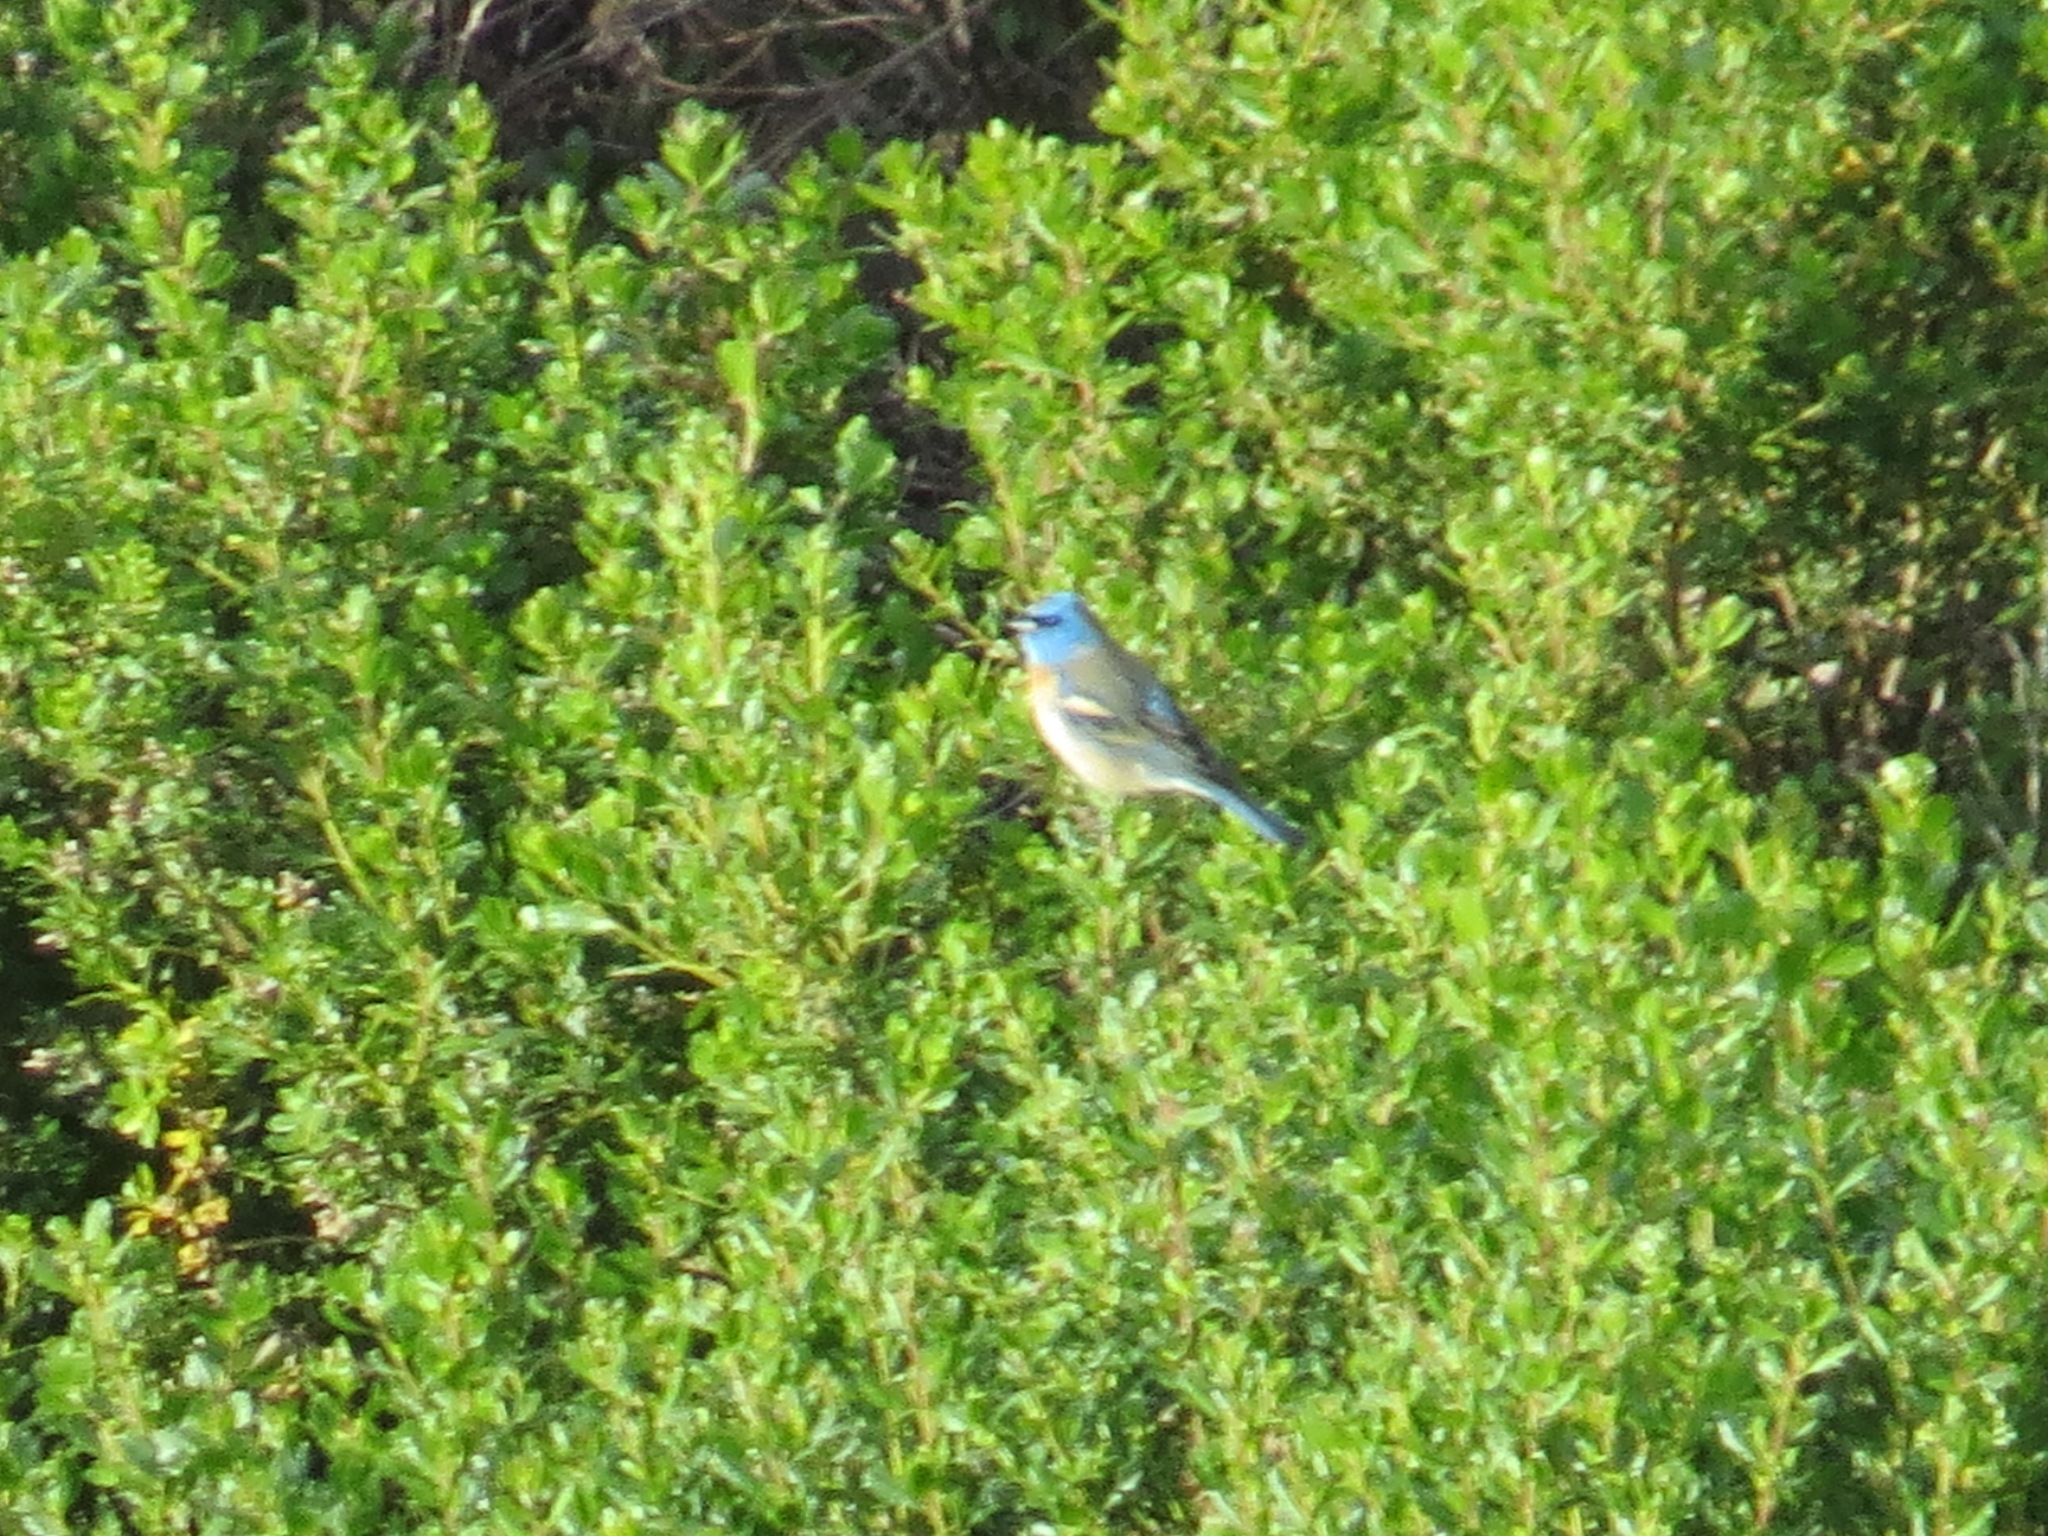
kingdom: Animalia
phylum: Chordata
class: Aves
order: Passeriformes
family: Cardinalidae
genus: Passerina
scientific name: Passerina amoena
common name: Lazuli bunting
